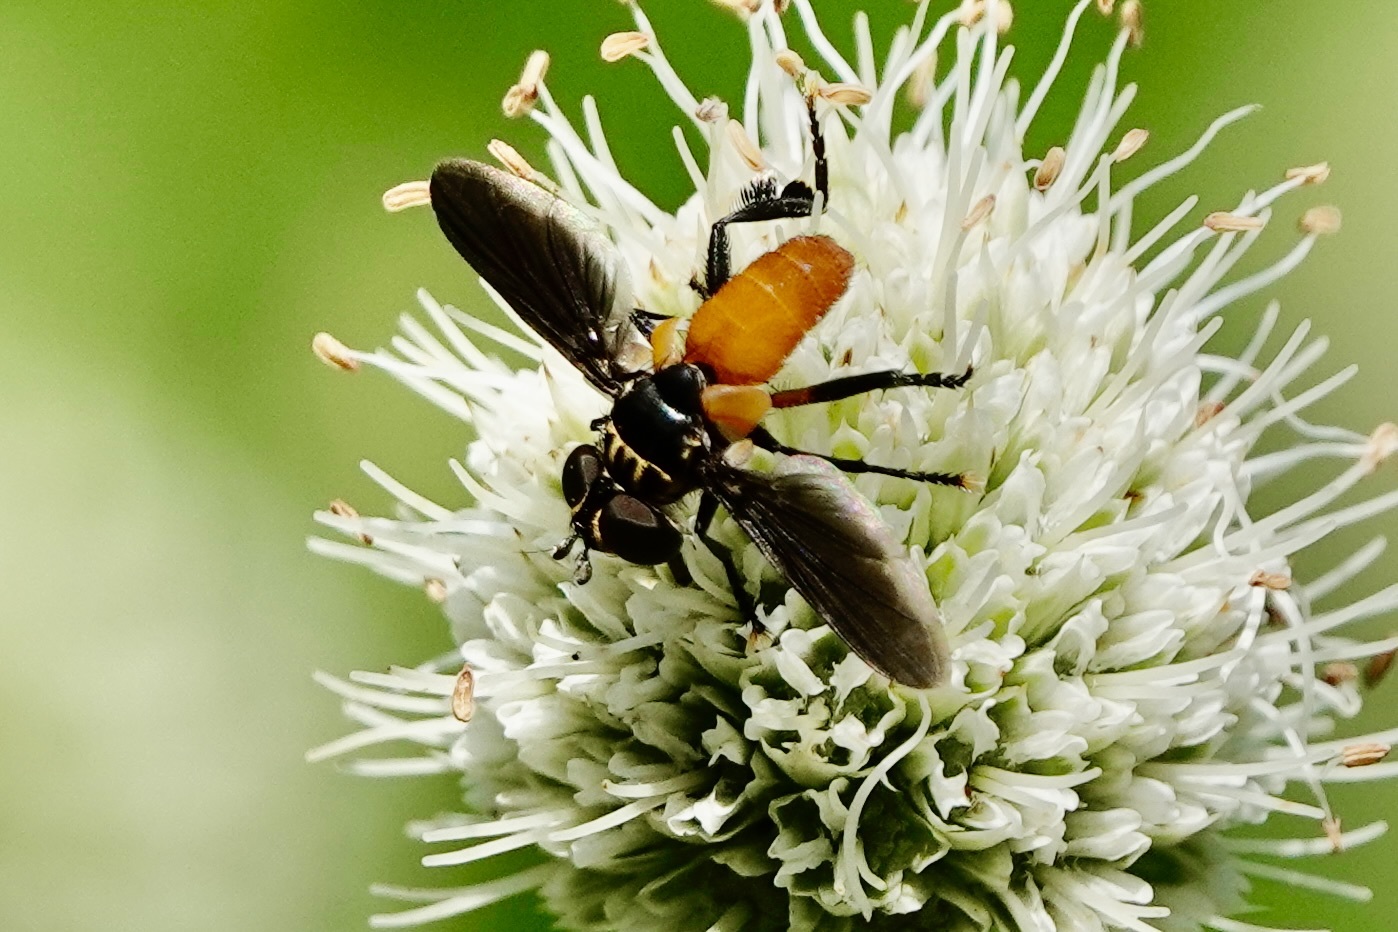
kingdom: Animalia
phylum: Arthropoda
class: Insecta
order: Diptera
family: Tachinidae
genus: Trichopoda
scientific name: Trichopoda pennipes
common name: Tachinid fly
